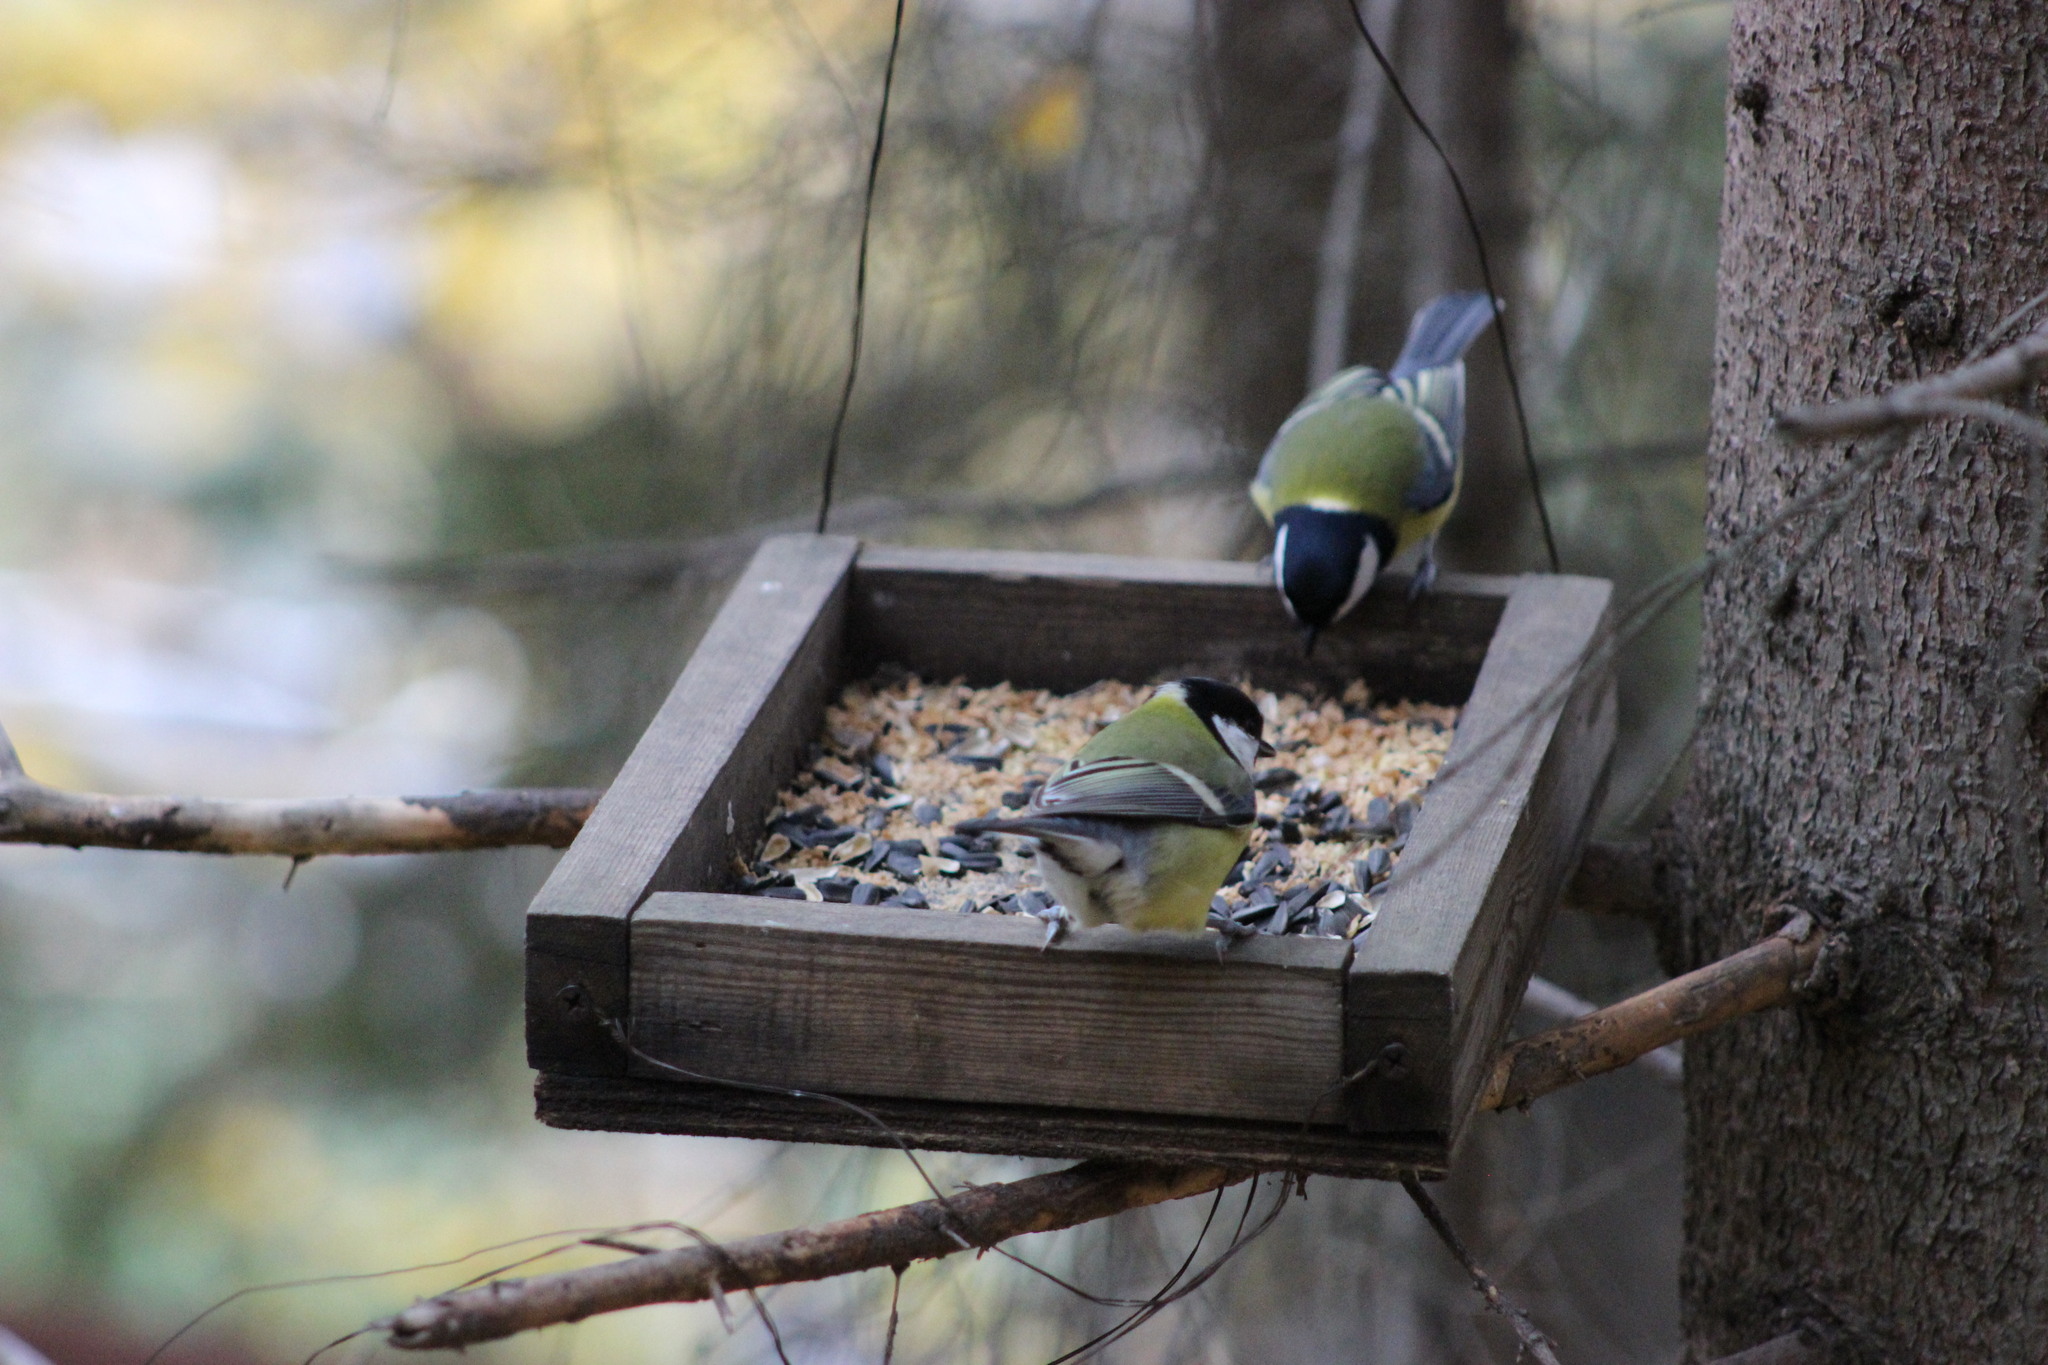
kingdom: Animalia
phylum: Chordata
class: Aves
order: Passeriformes
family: Paridae
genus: Parus
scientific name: Parus major
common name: Great tit
